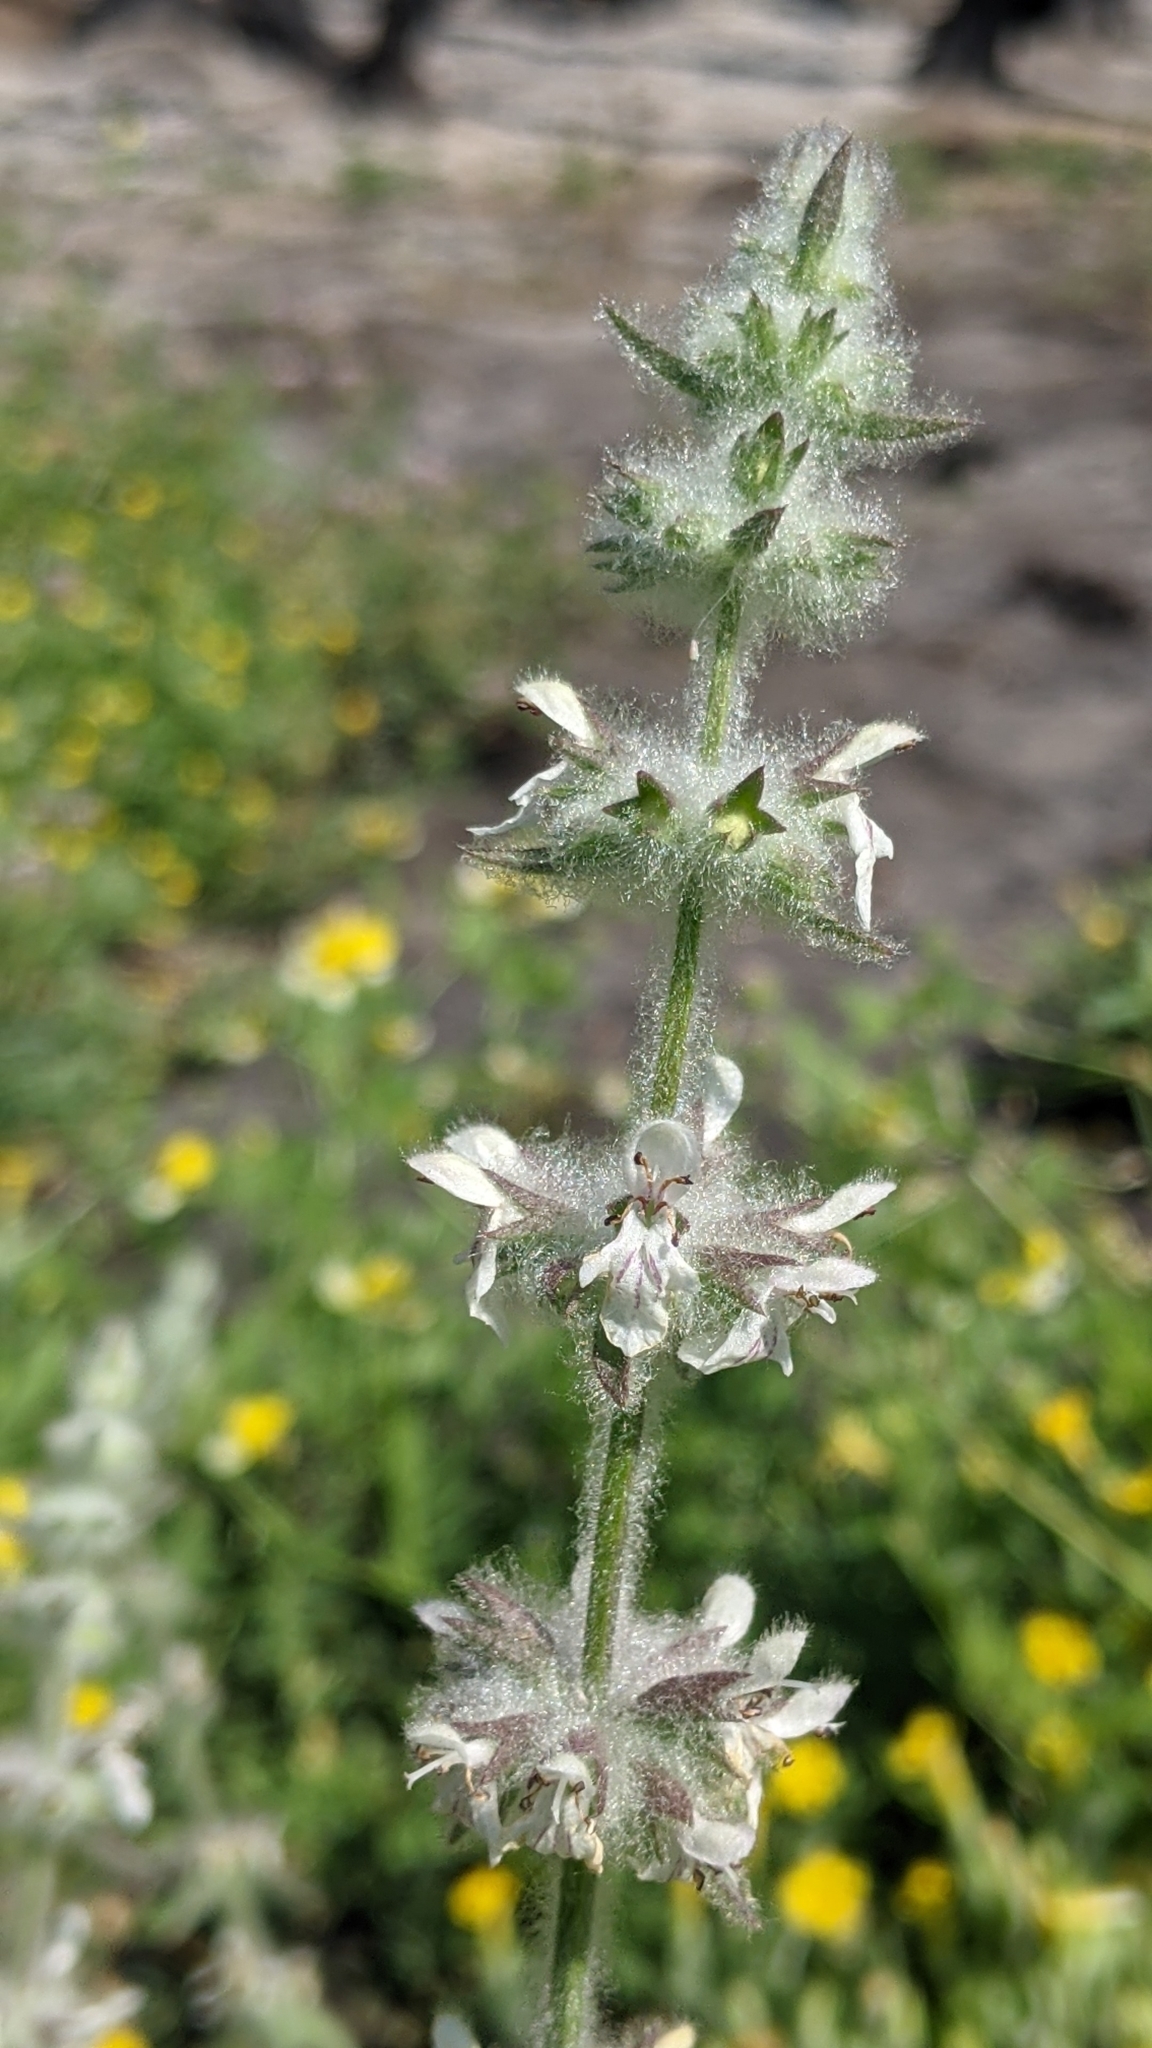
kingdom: Plantae
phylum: Tracheophyta
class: Magnoliopsida
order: Lamiales
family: Lamiaceae
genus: Stachys
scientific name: Stachys albens
